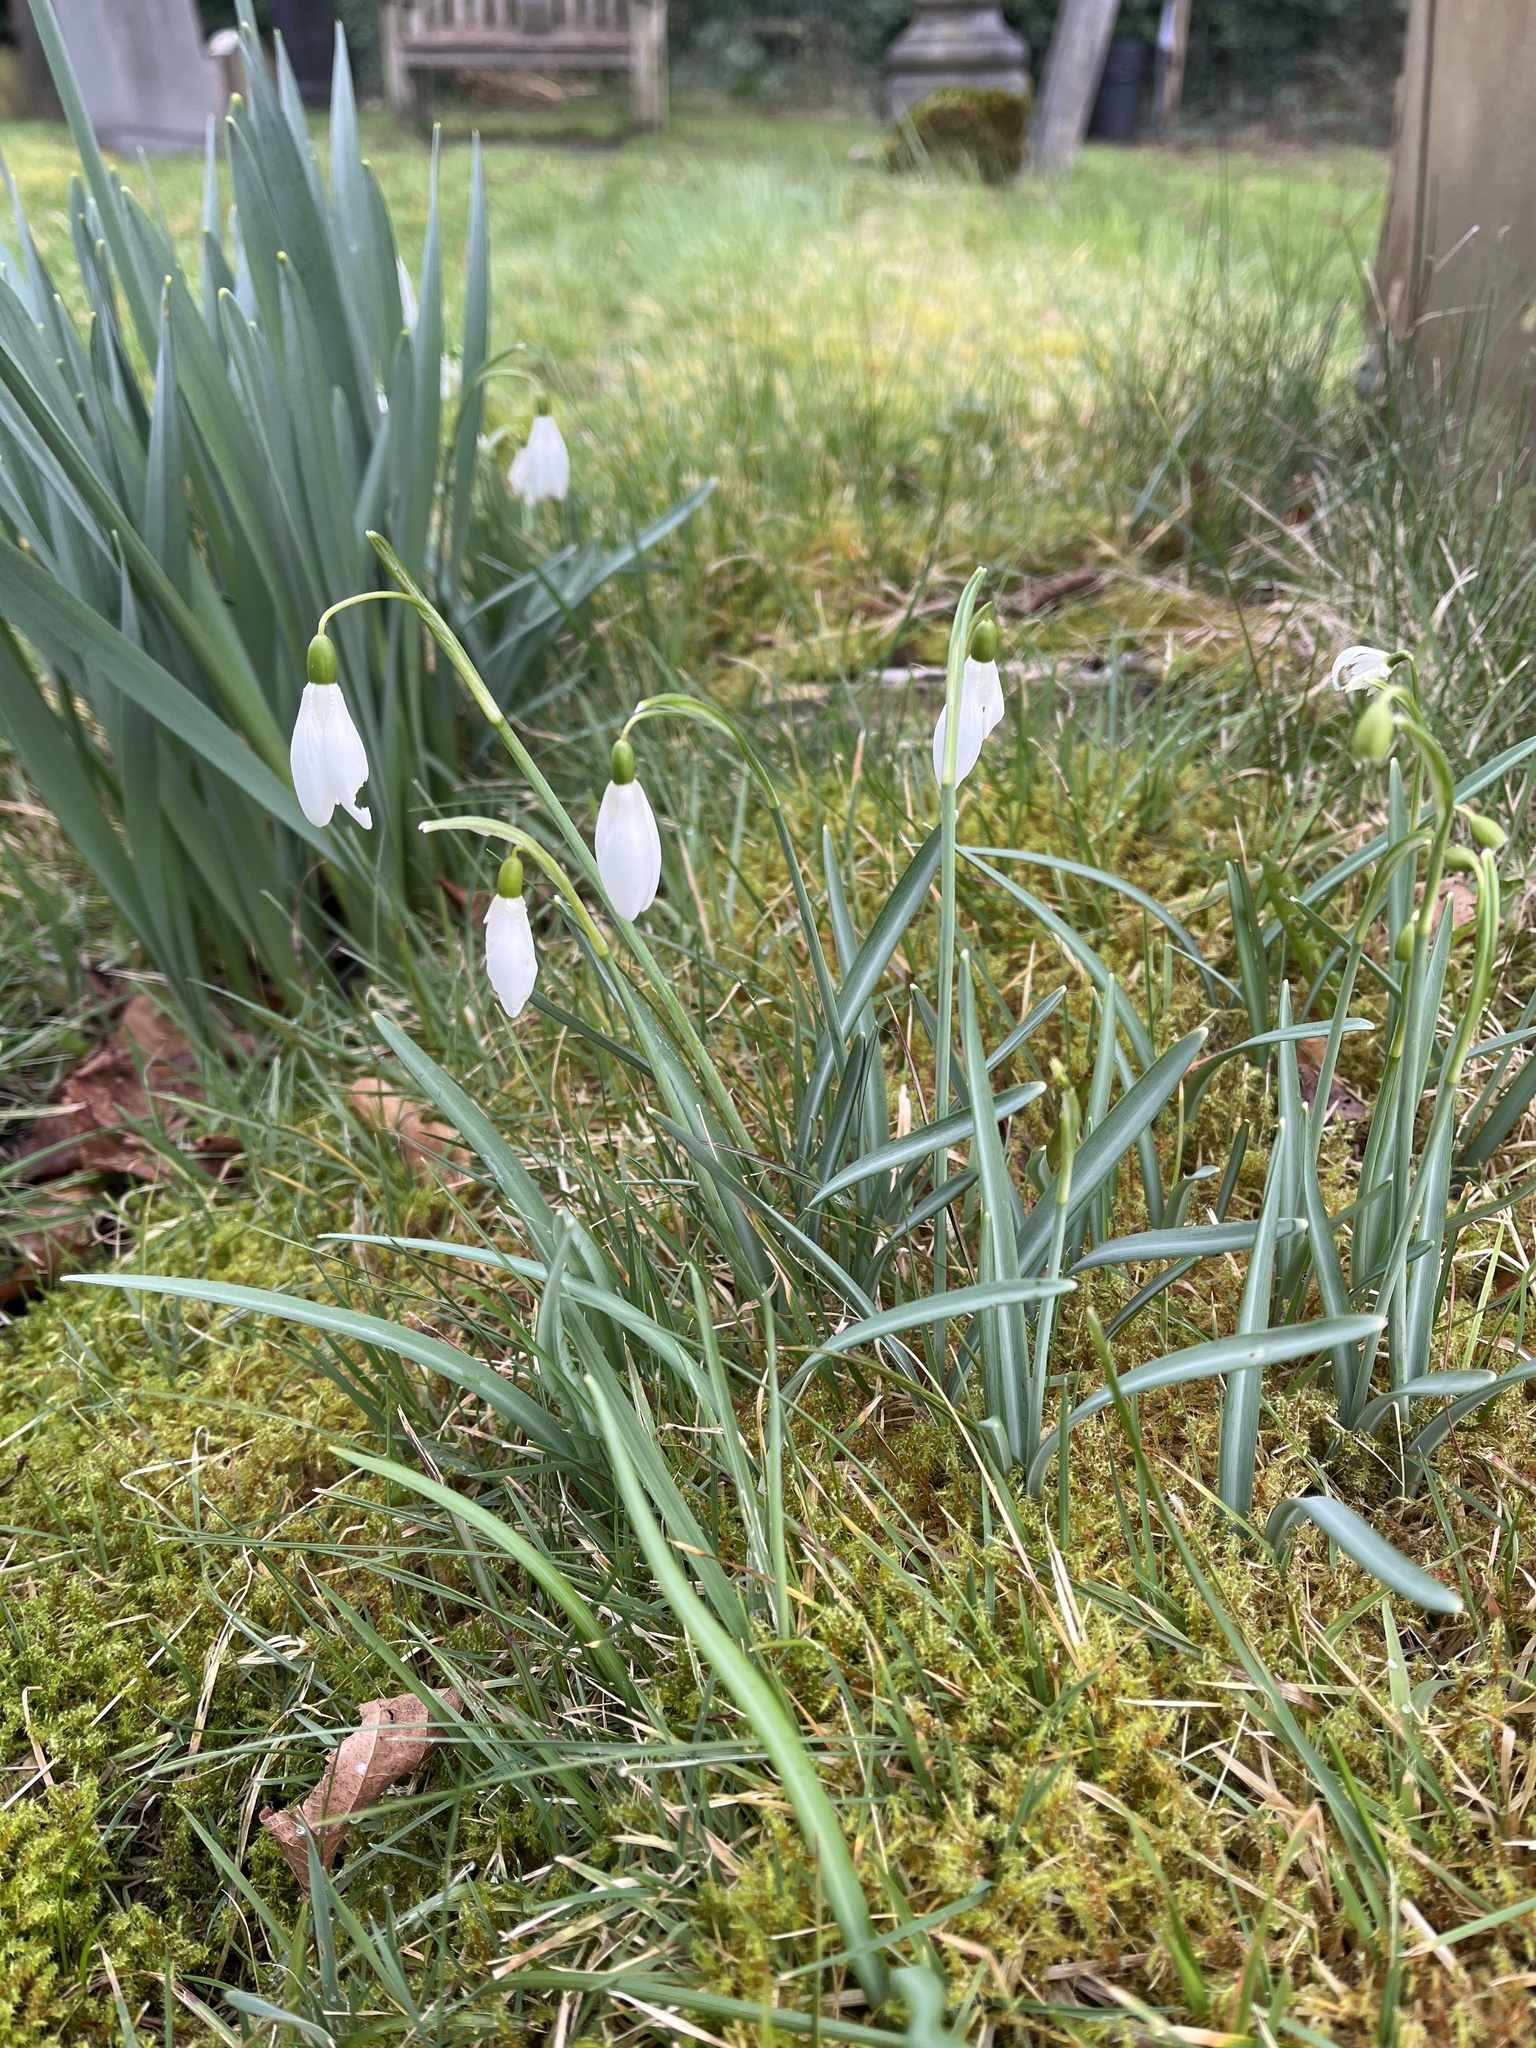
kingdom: Plantae
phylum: Tracheophyta
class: Liliopsida
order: Asparagales
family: Amaryllidaceae
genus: Galanthus
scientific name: Galanthus nivalis
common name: Snowdrop
